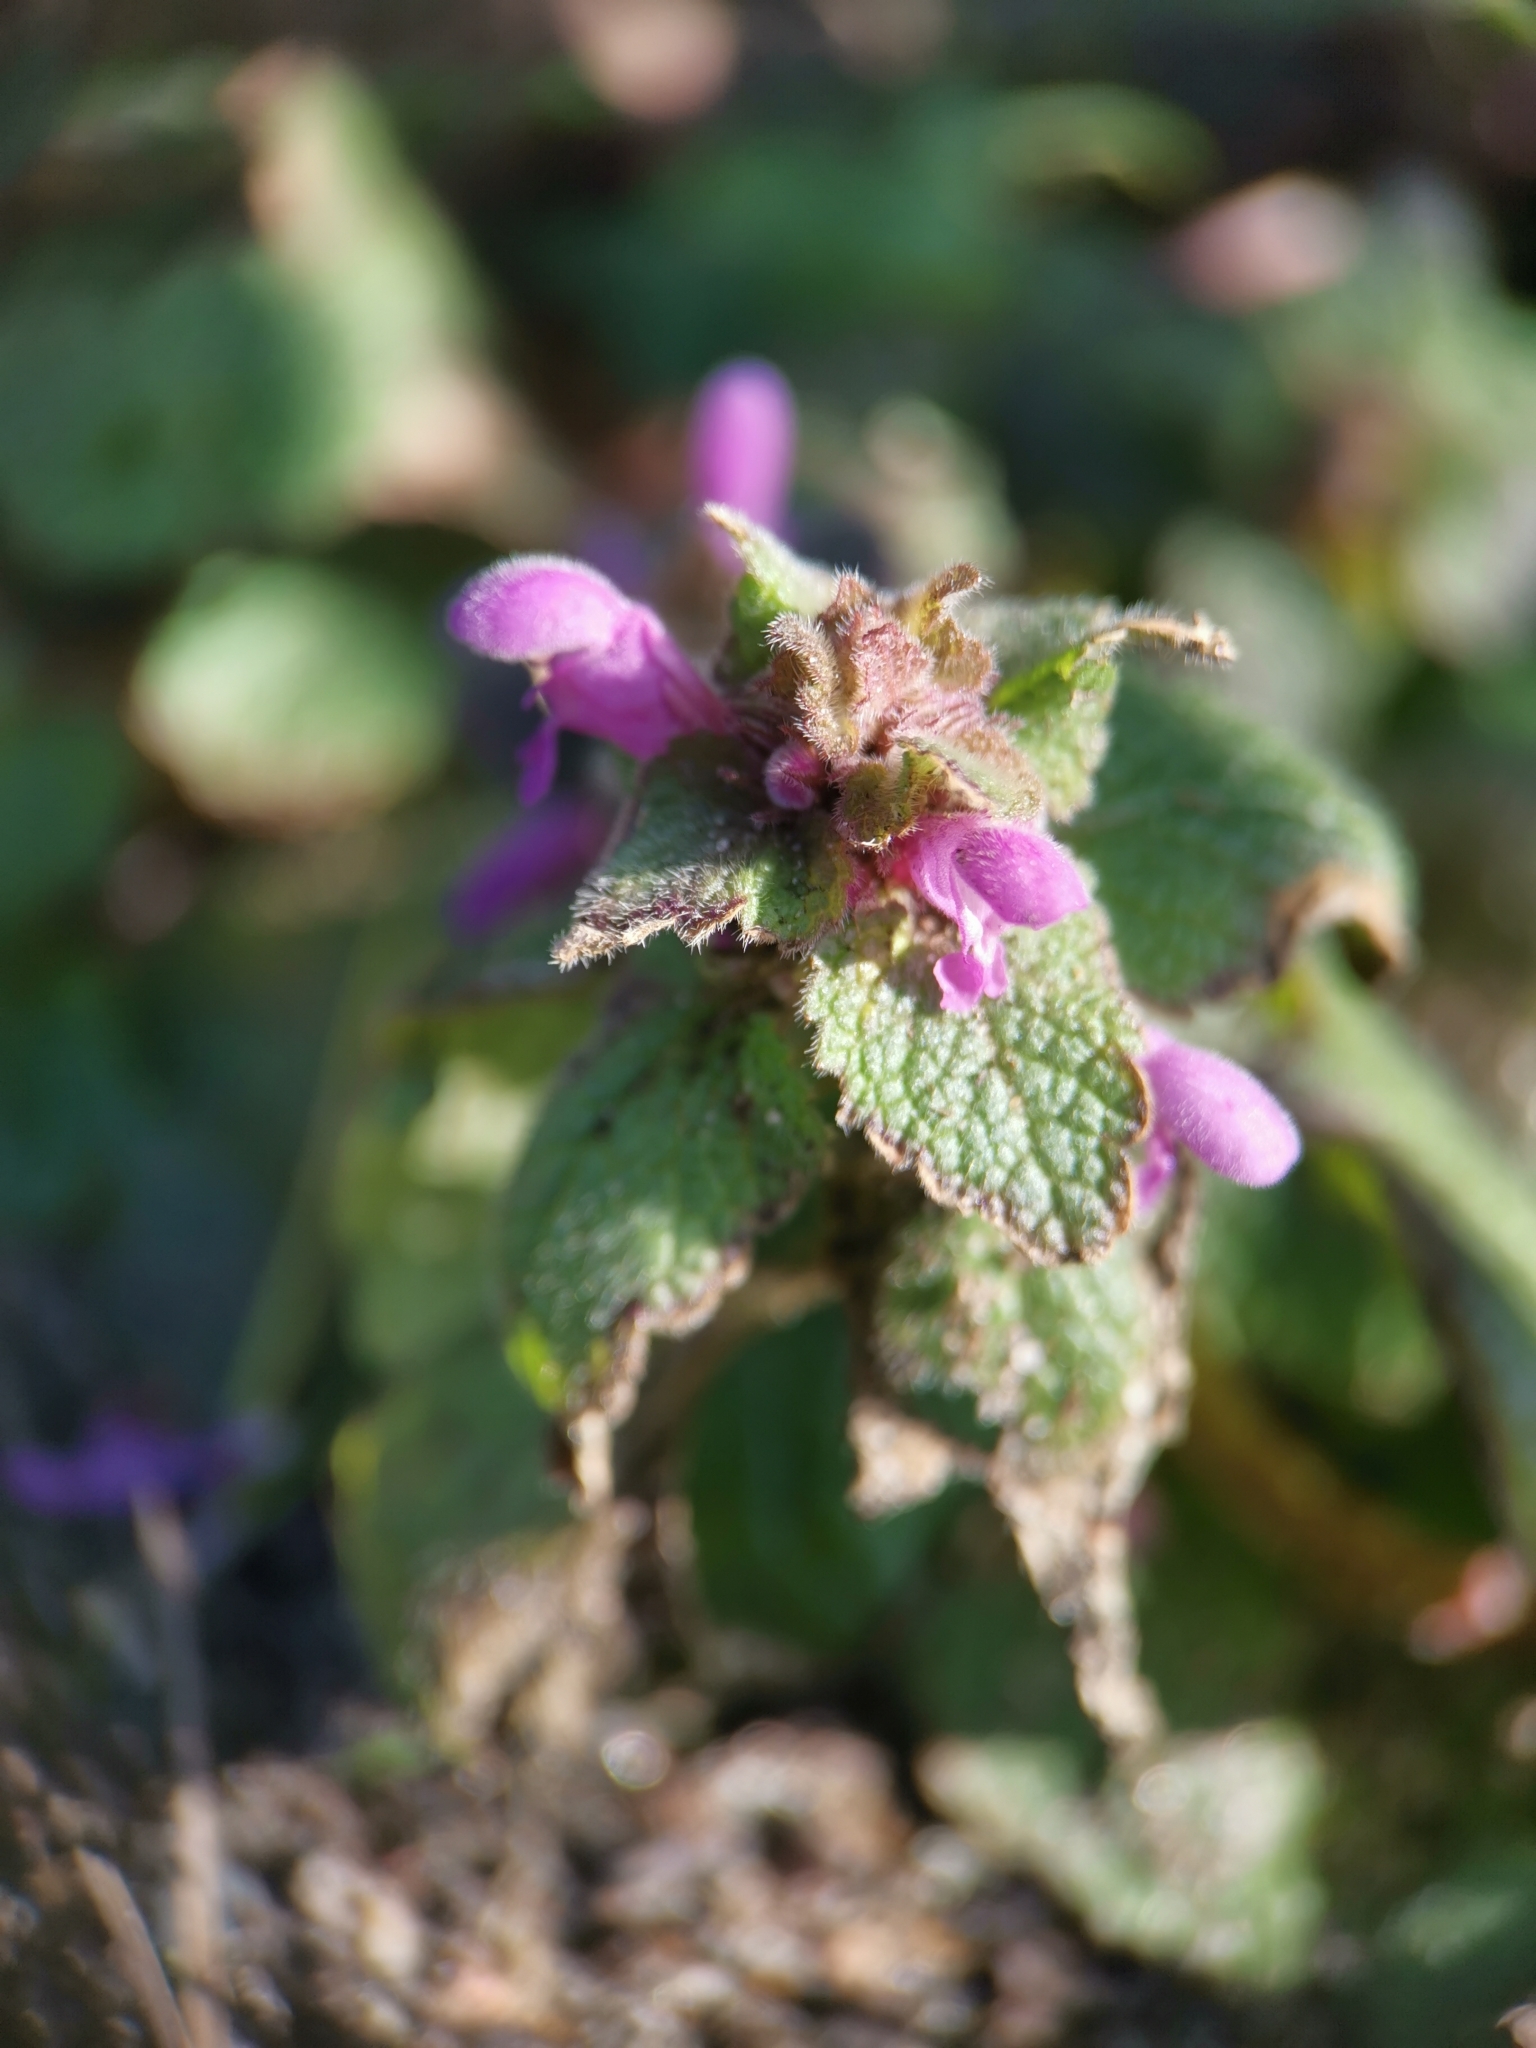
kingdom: Plantae
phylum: Tracheophyta
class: Magnoliopsida
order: Lamiales
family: Lamiaceae
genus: Lamium
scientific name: Lamium purpureum
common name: Red dead-nettle
